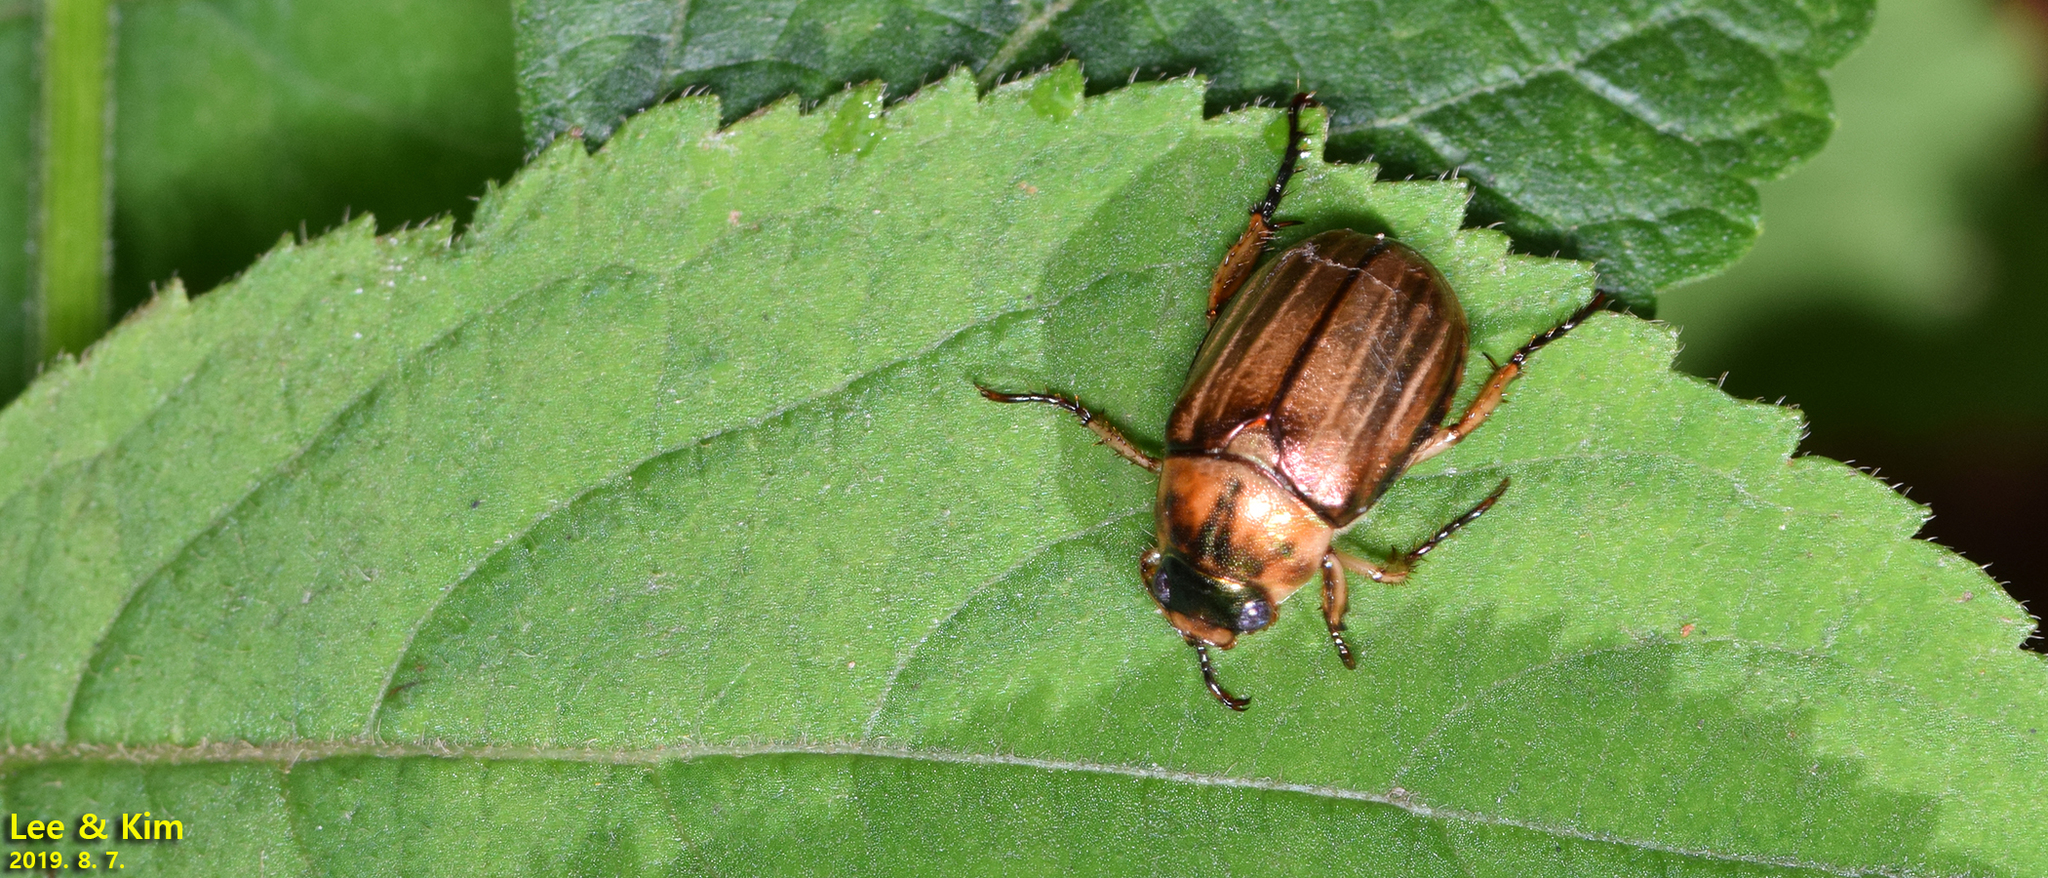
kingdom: Animalia
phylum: Arthropoda
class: Insecta
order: Coleoptera
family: Scarabaeidae
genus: Mimela
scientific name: Mimela testaceipes
